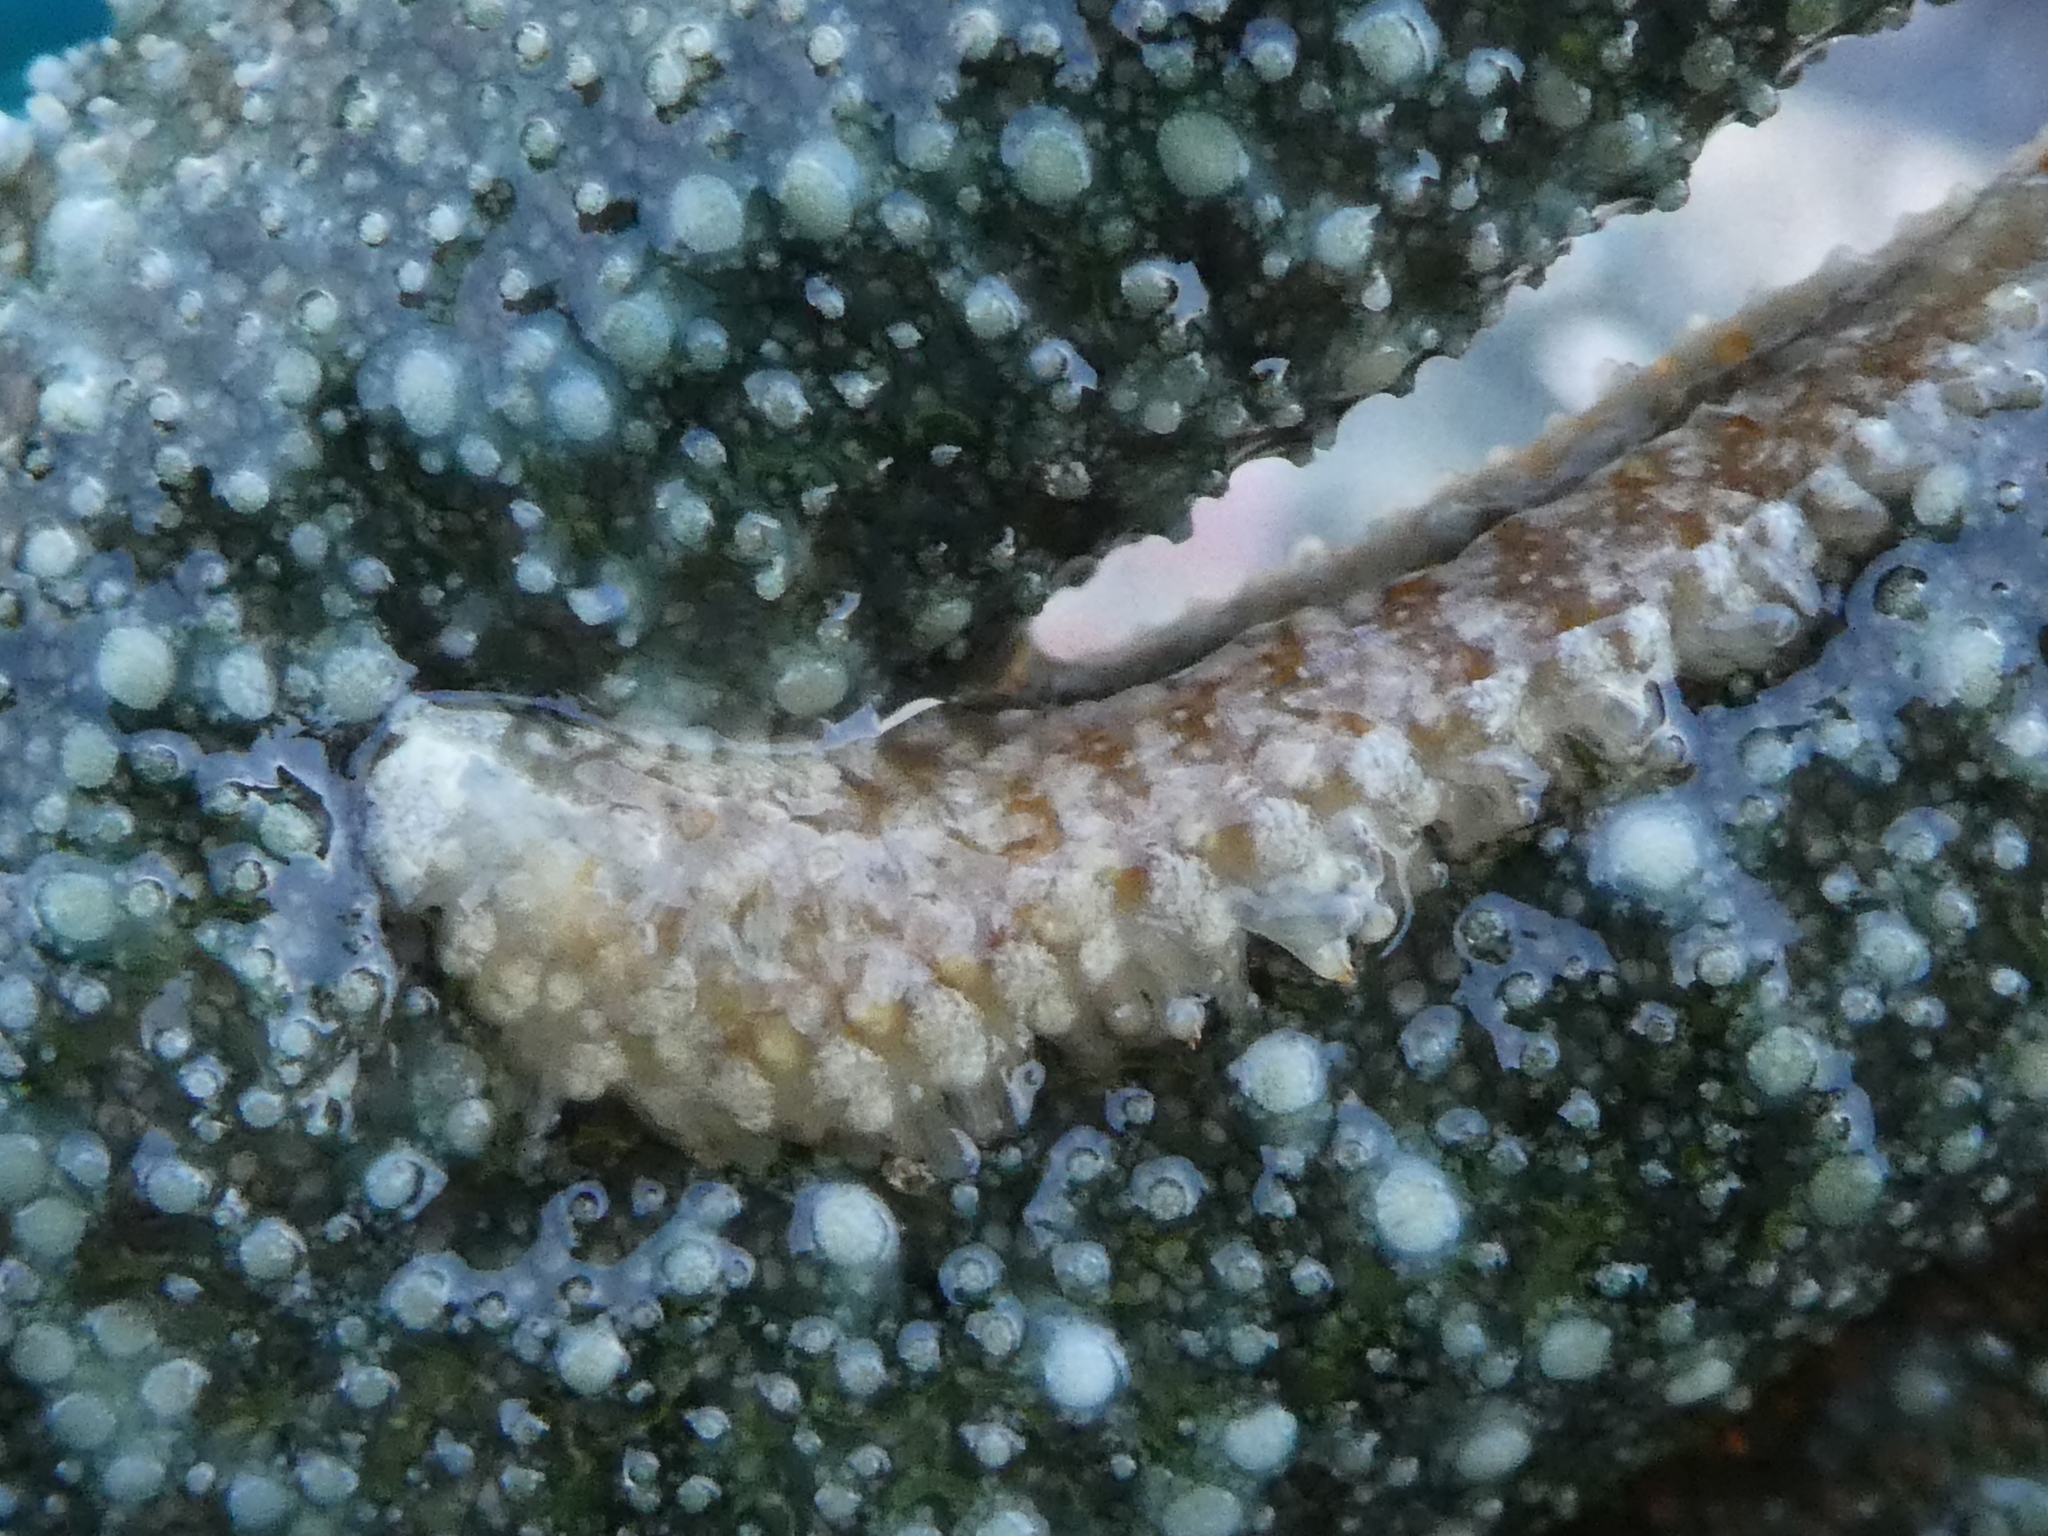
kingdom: Animalia
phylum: Annelida
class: Polychaeta
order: Phyllodocida
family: Polynoidae
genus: Arctonoe
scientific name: Arctonoe fragilis
